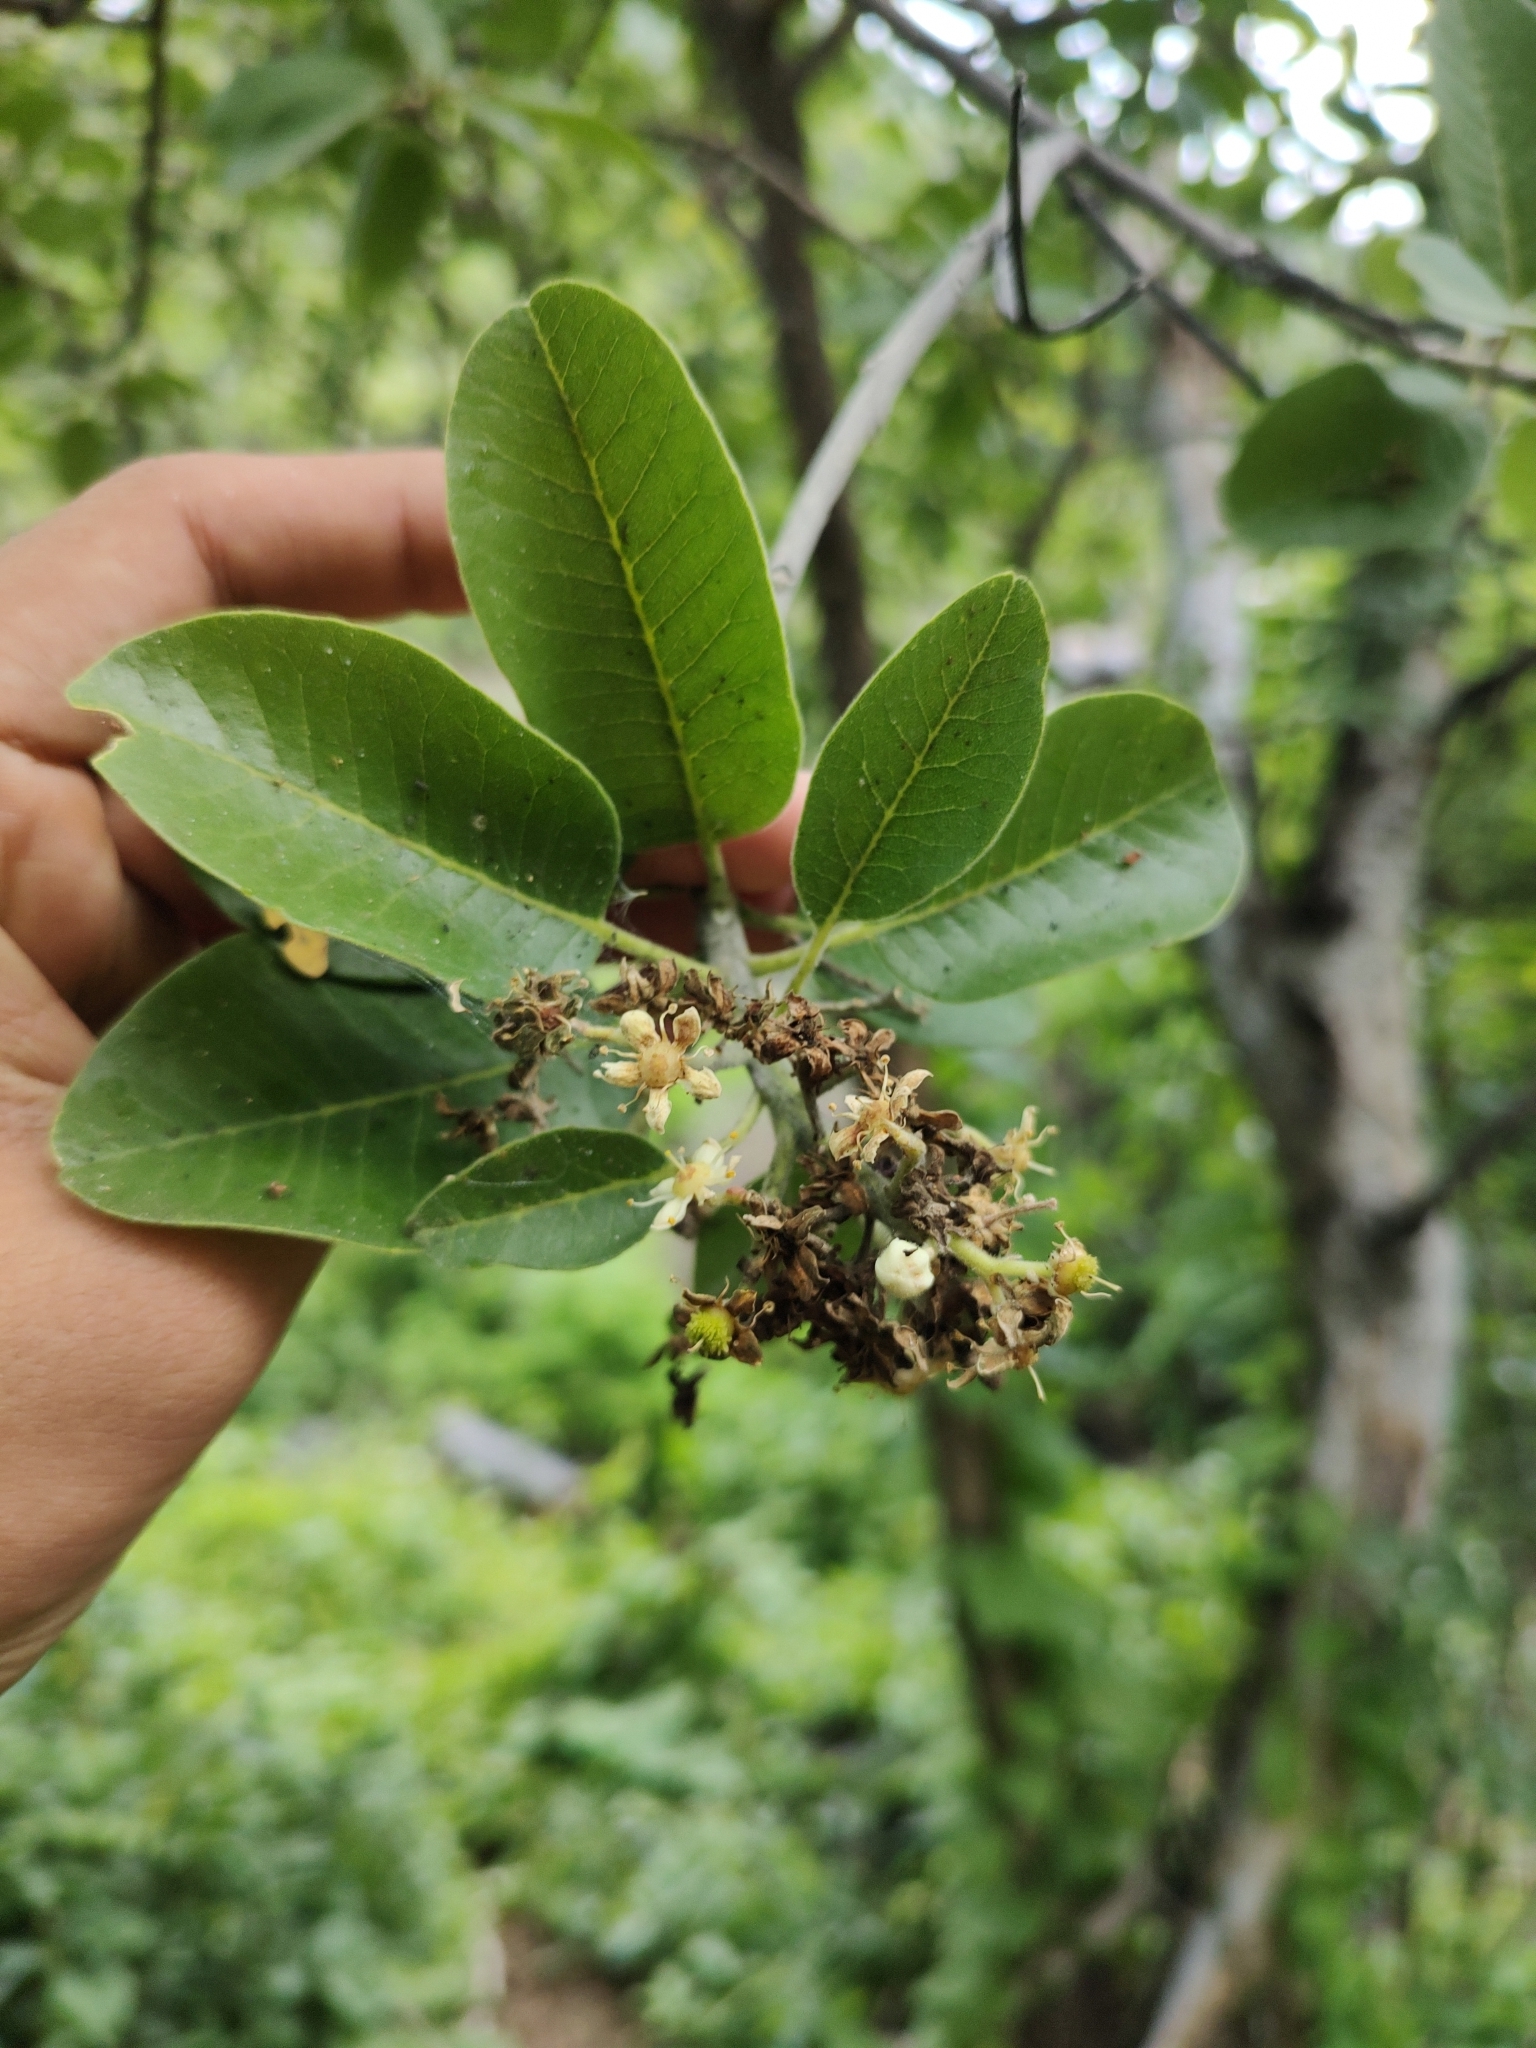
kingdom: Plantae
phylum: Tracheophyta
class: Magnoliopsida
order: Sapindales
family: Rutaceae
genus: Esenbeckia
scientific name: Esenbeckia flava
